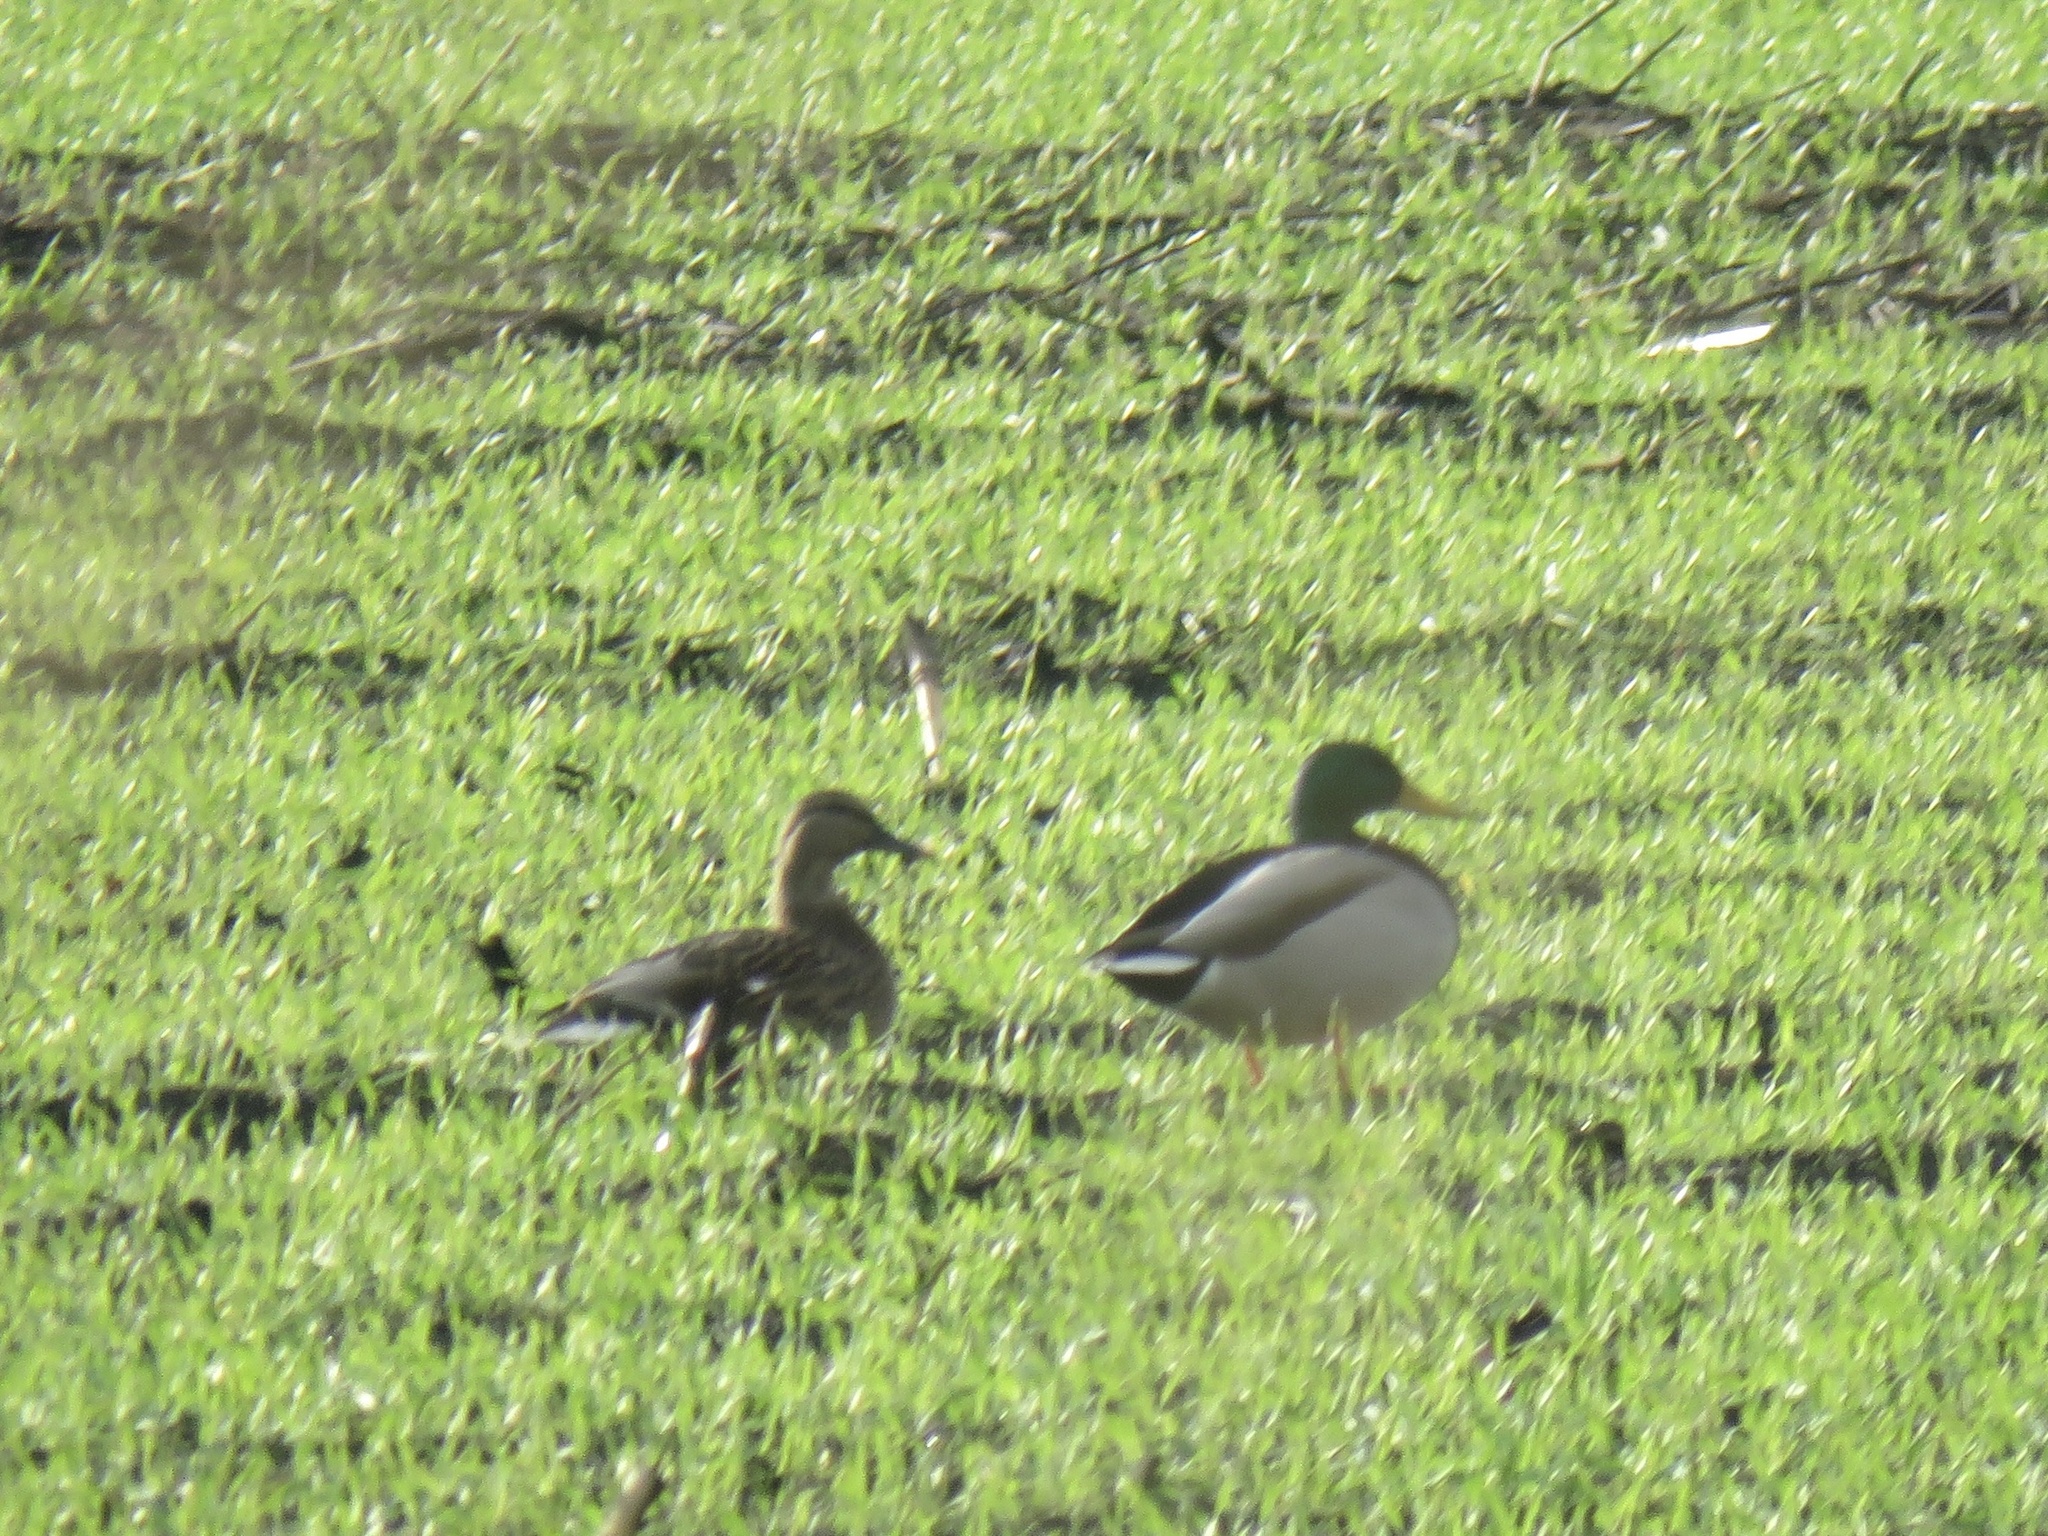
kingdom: Animalia
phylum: Chordata
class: Aves
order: Anseriformes
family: Anatidae
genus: Anas
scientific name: Anas platyrhynchos
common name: Mallard
